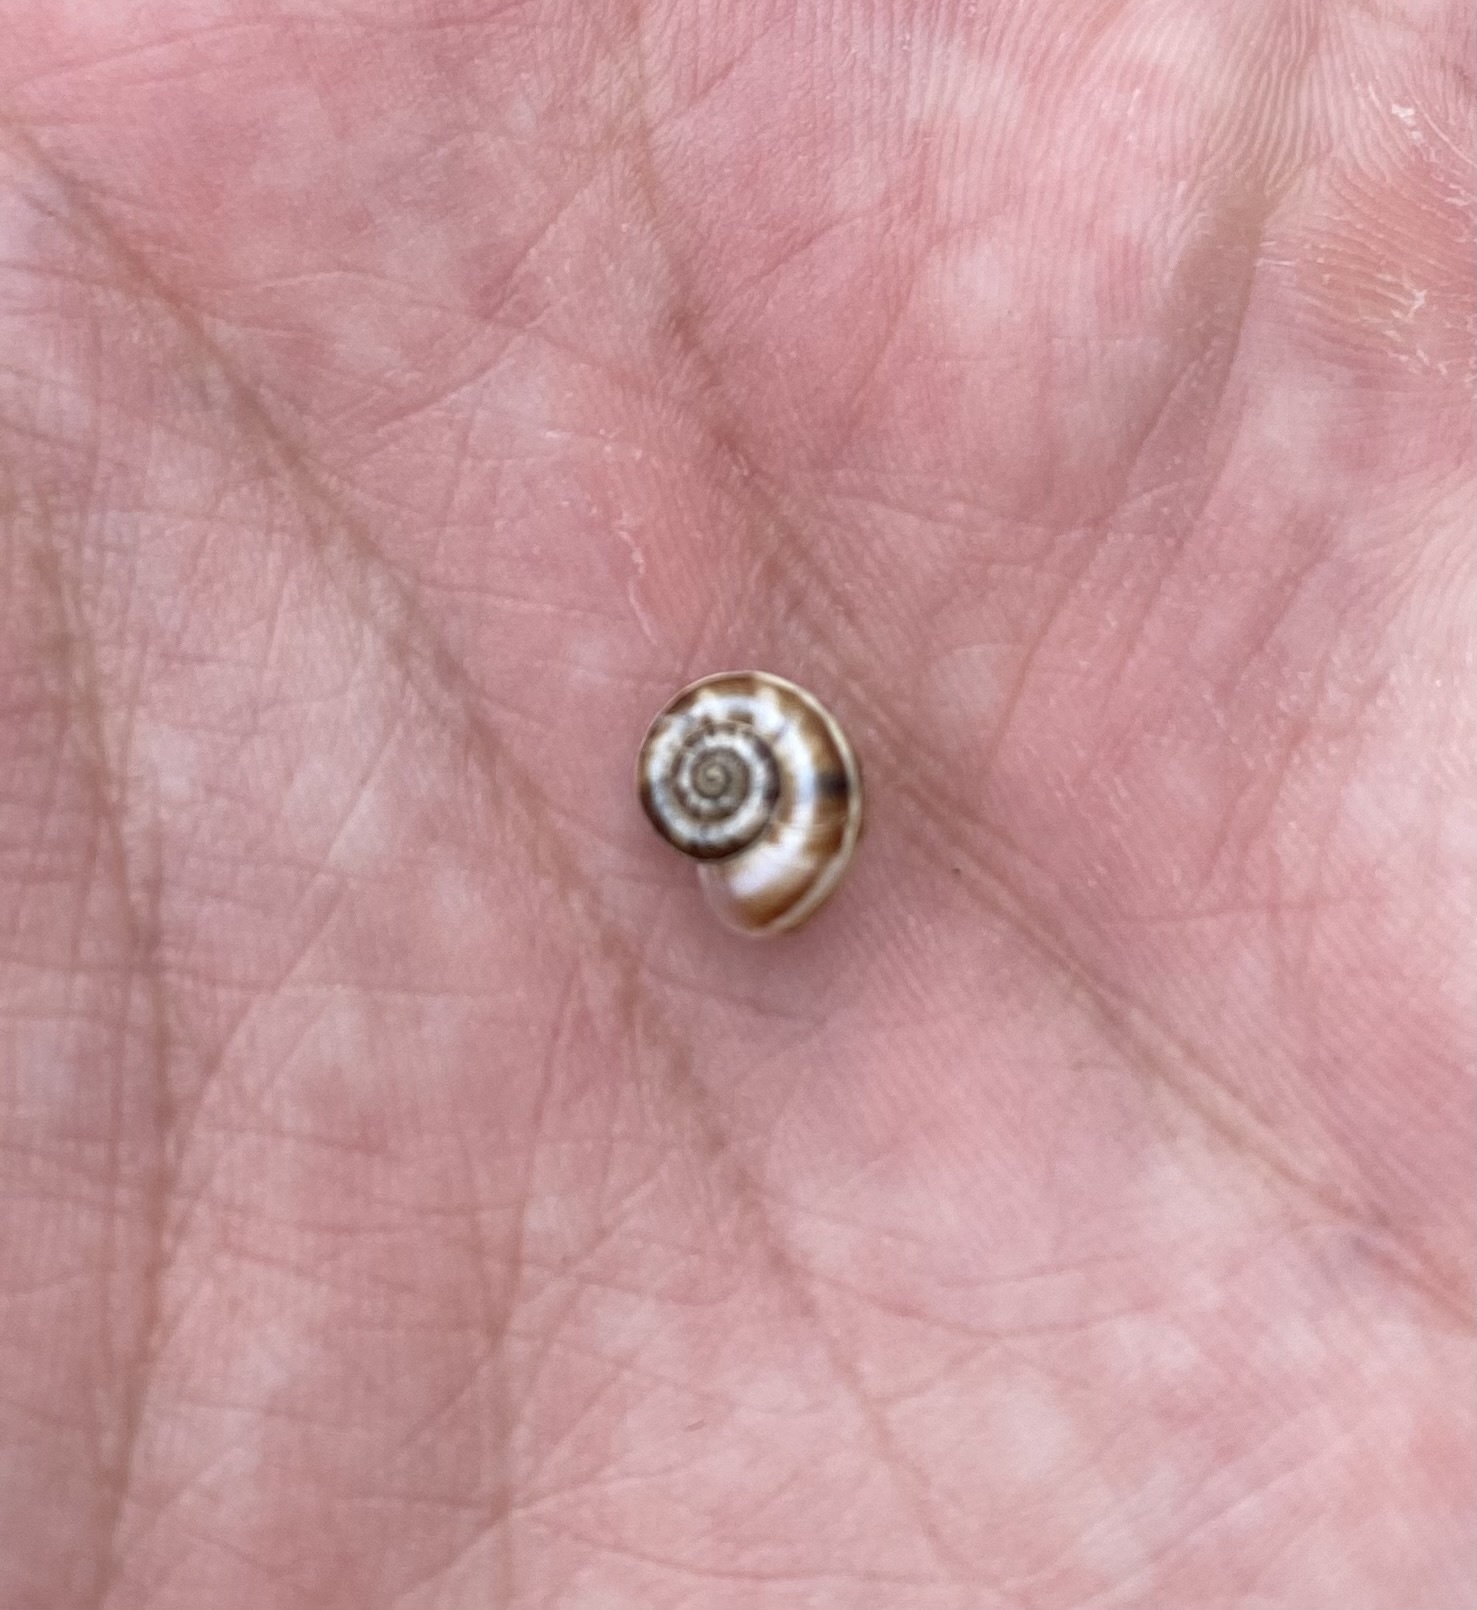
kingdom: Animalia
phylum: Mollusca
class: Gastropoda
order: Stylommatophora
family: Geomitridae
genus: Xeropicta
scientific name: Xeropicta derbentina
